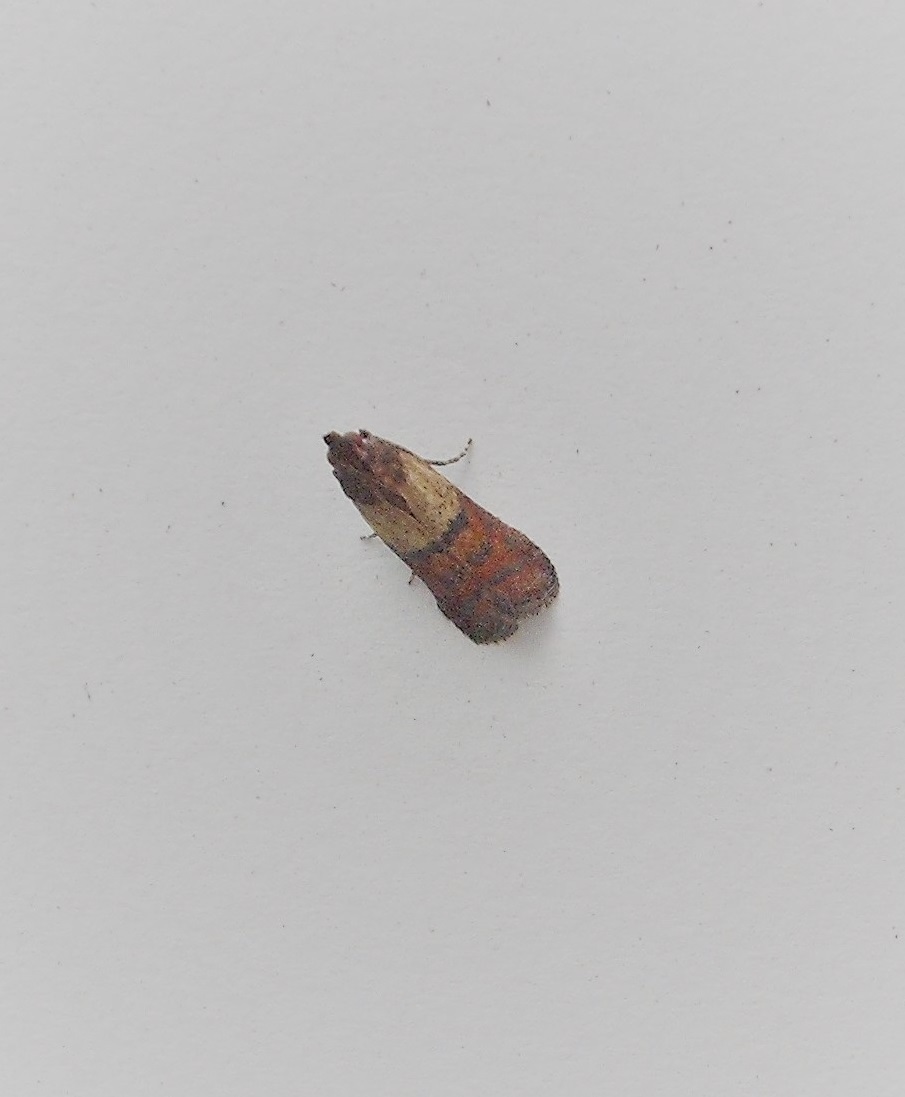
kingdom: Animalia
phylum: Arthropoda
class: Insecta
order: Lepidoptera
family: Pyralidae
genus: Plodia
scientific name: Plodia interpunctella
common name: Indian meal moth
